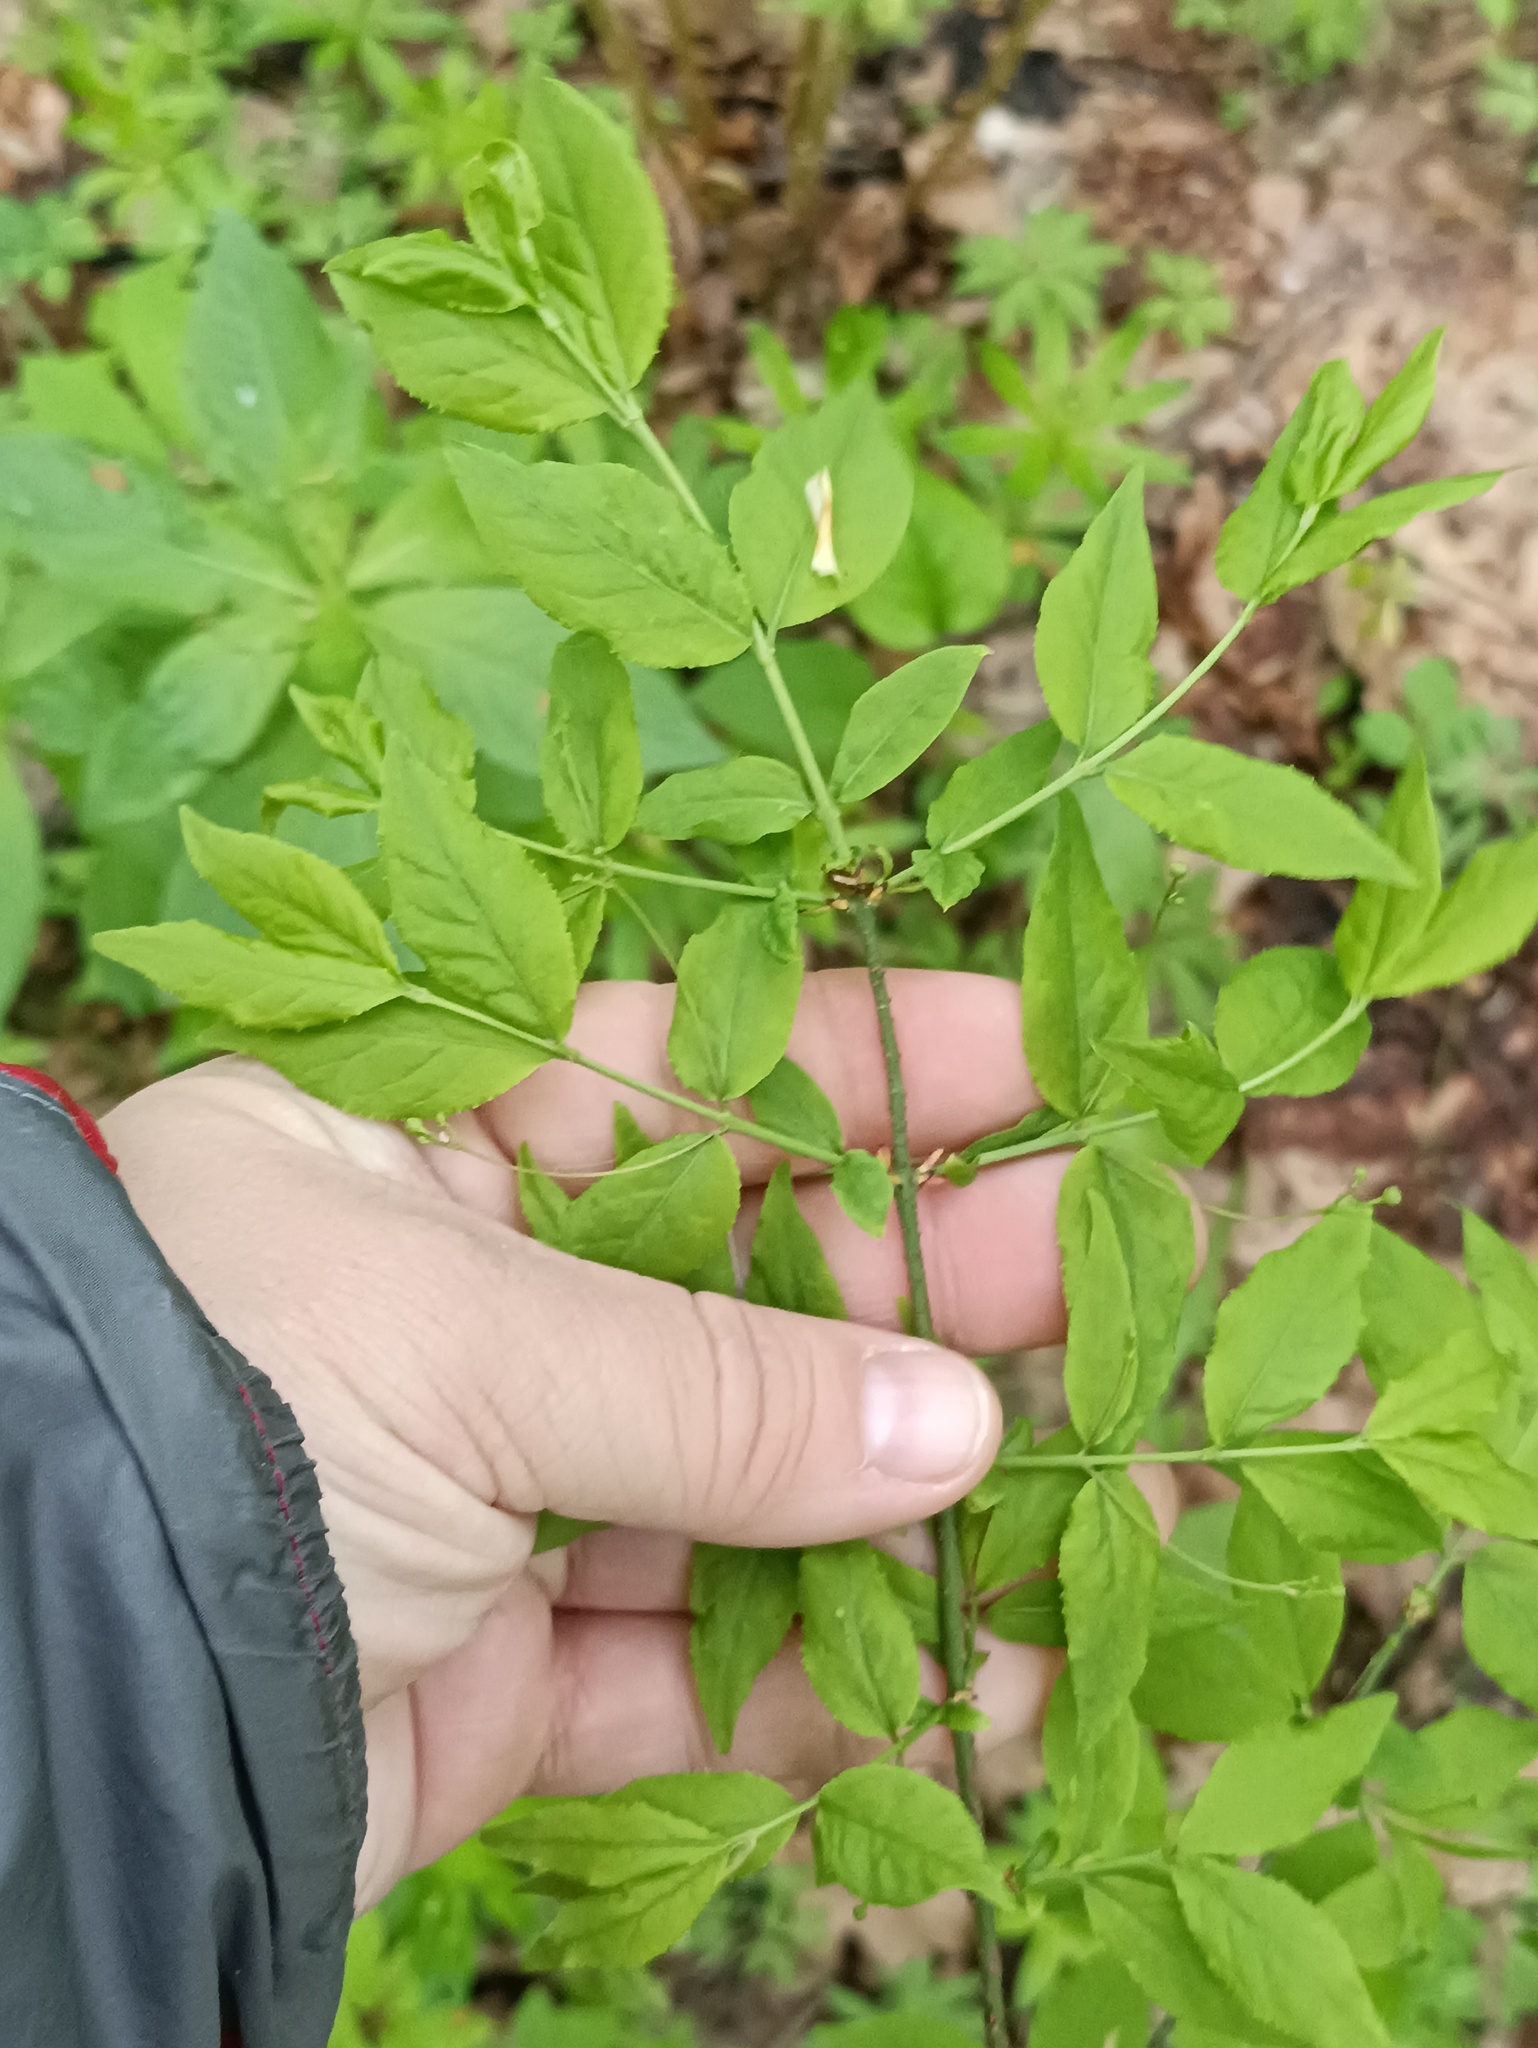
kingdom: Plantae
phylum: Tracheophyta
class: Magnoliopsida
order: Celastrales
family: Celastraceae
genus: Euonymus
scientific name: Euonymus verrucosus
